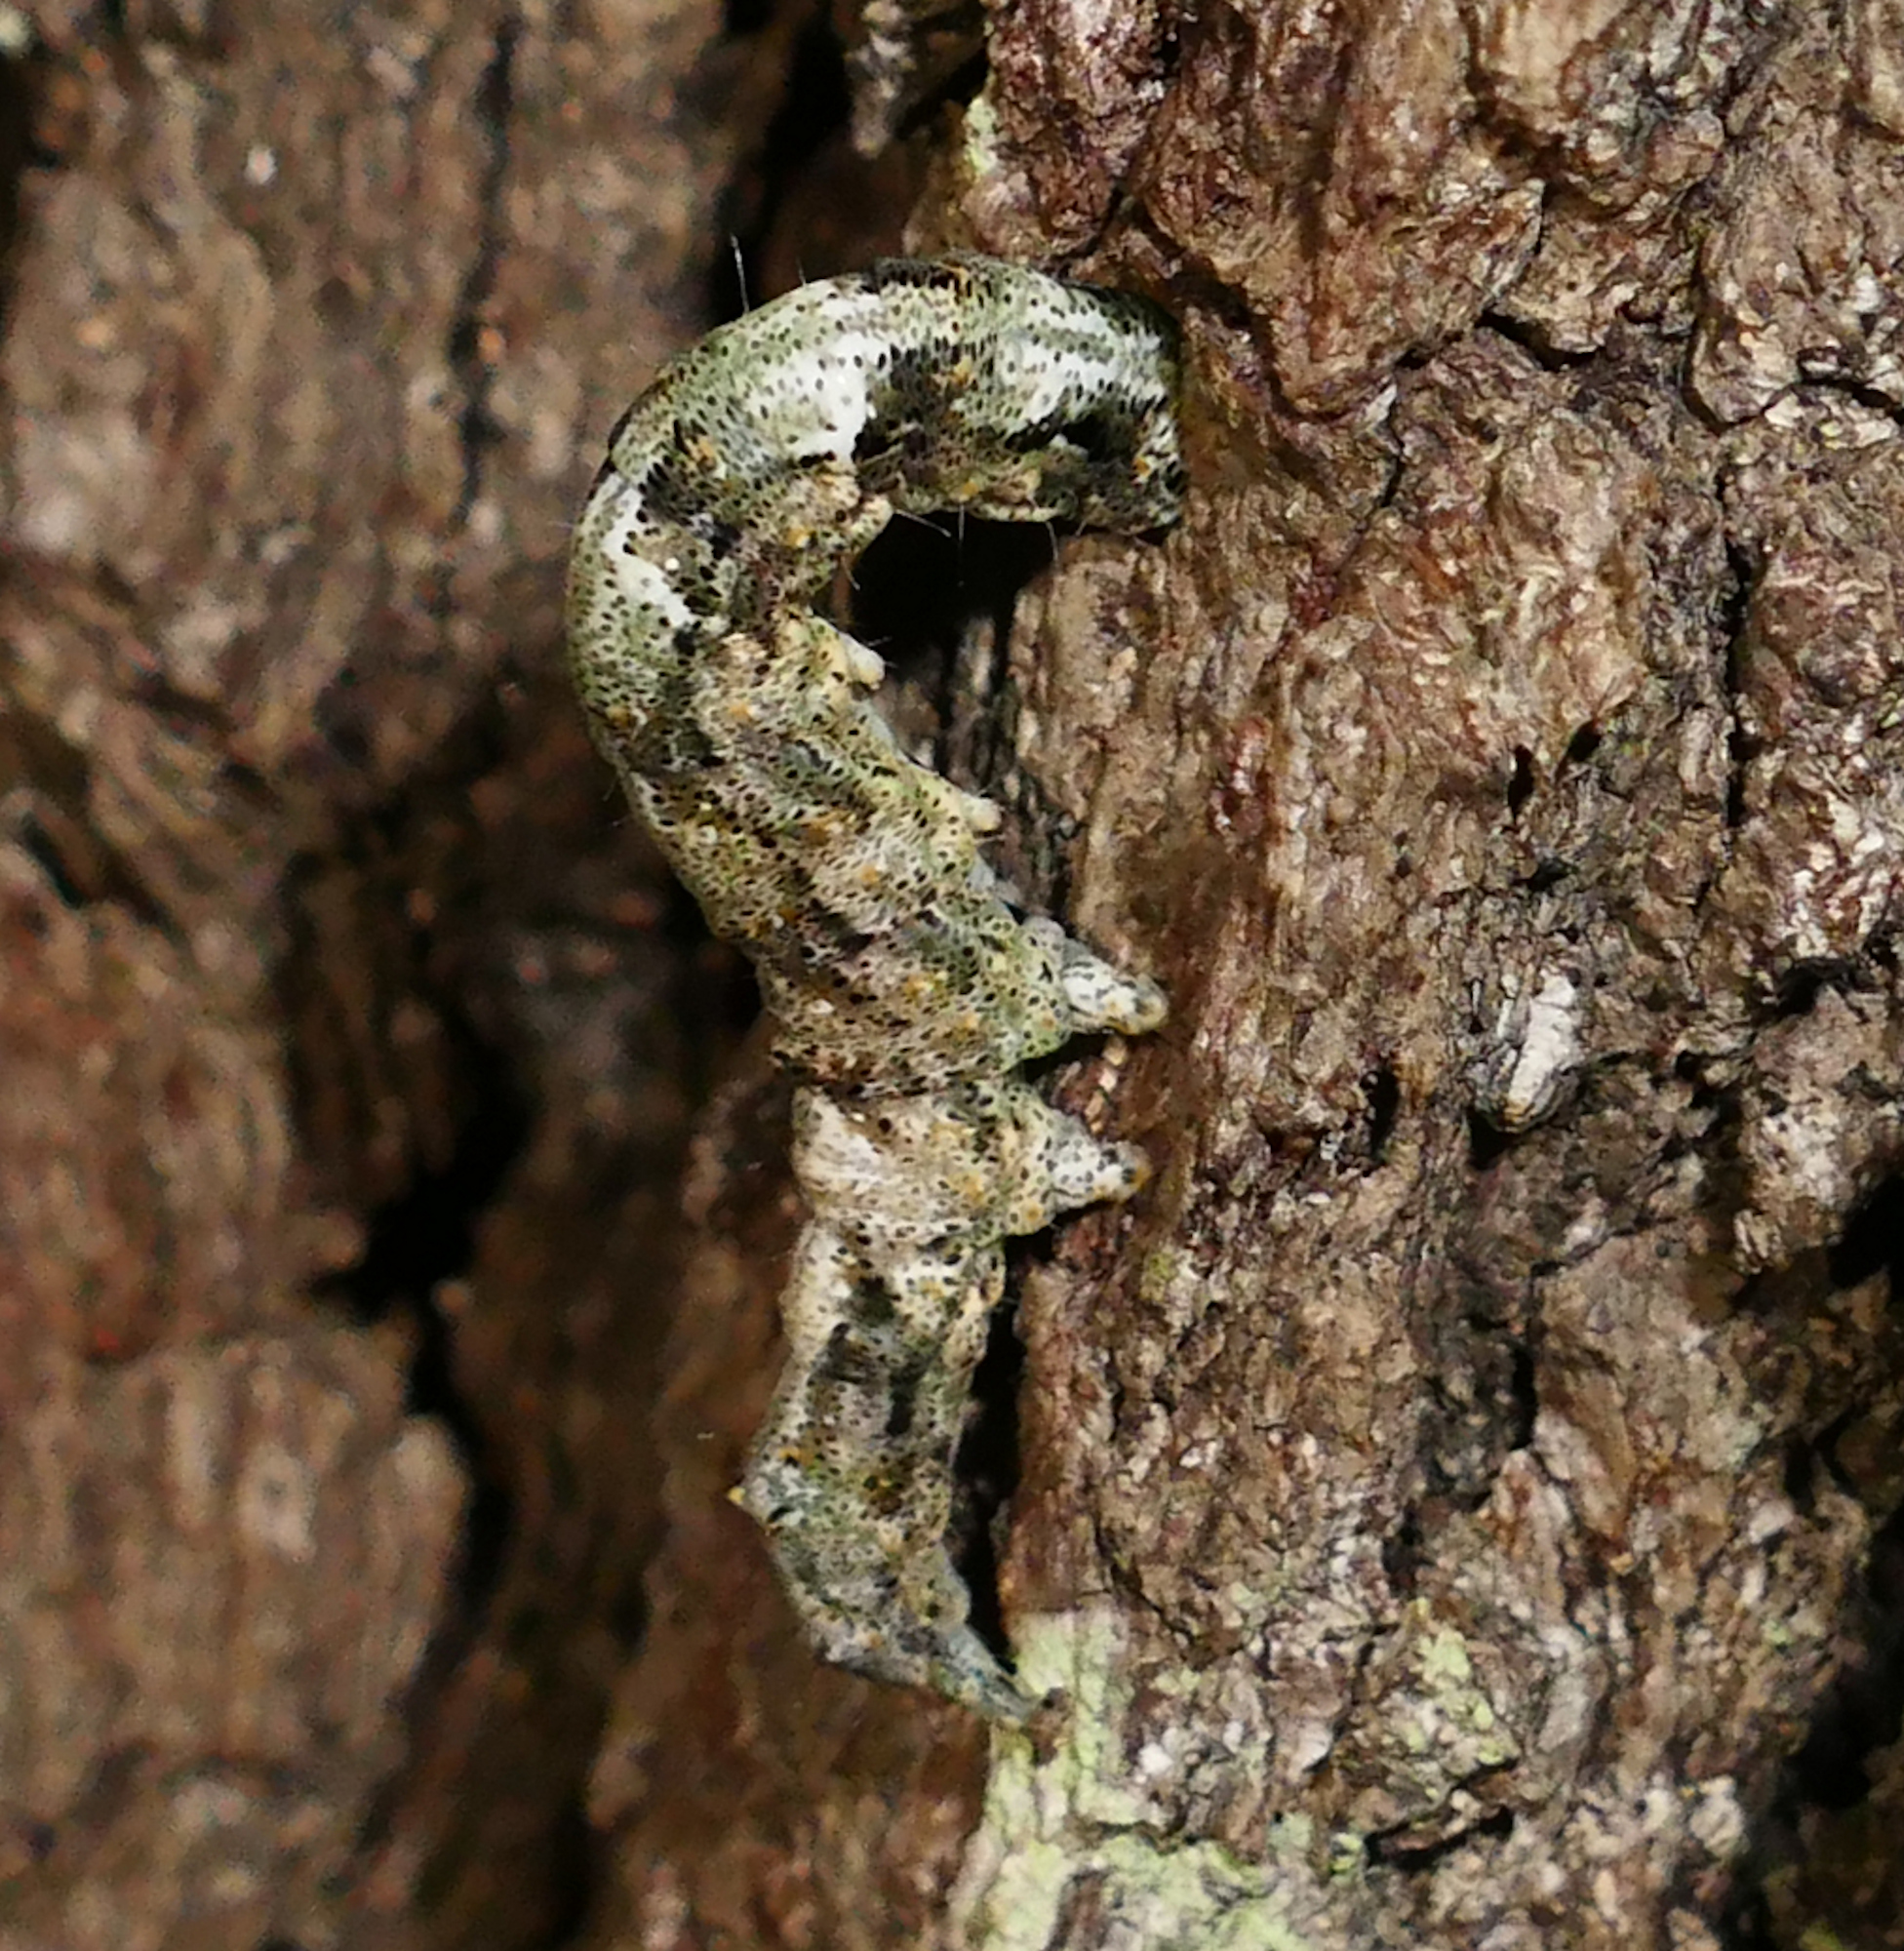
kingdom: Animalia
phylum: Arthropoda
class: Insecta
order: Lepidoptera
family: Erebidae
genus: Metria
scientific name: Metria amella
